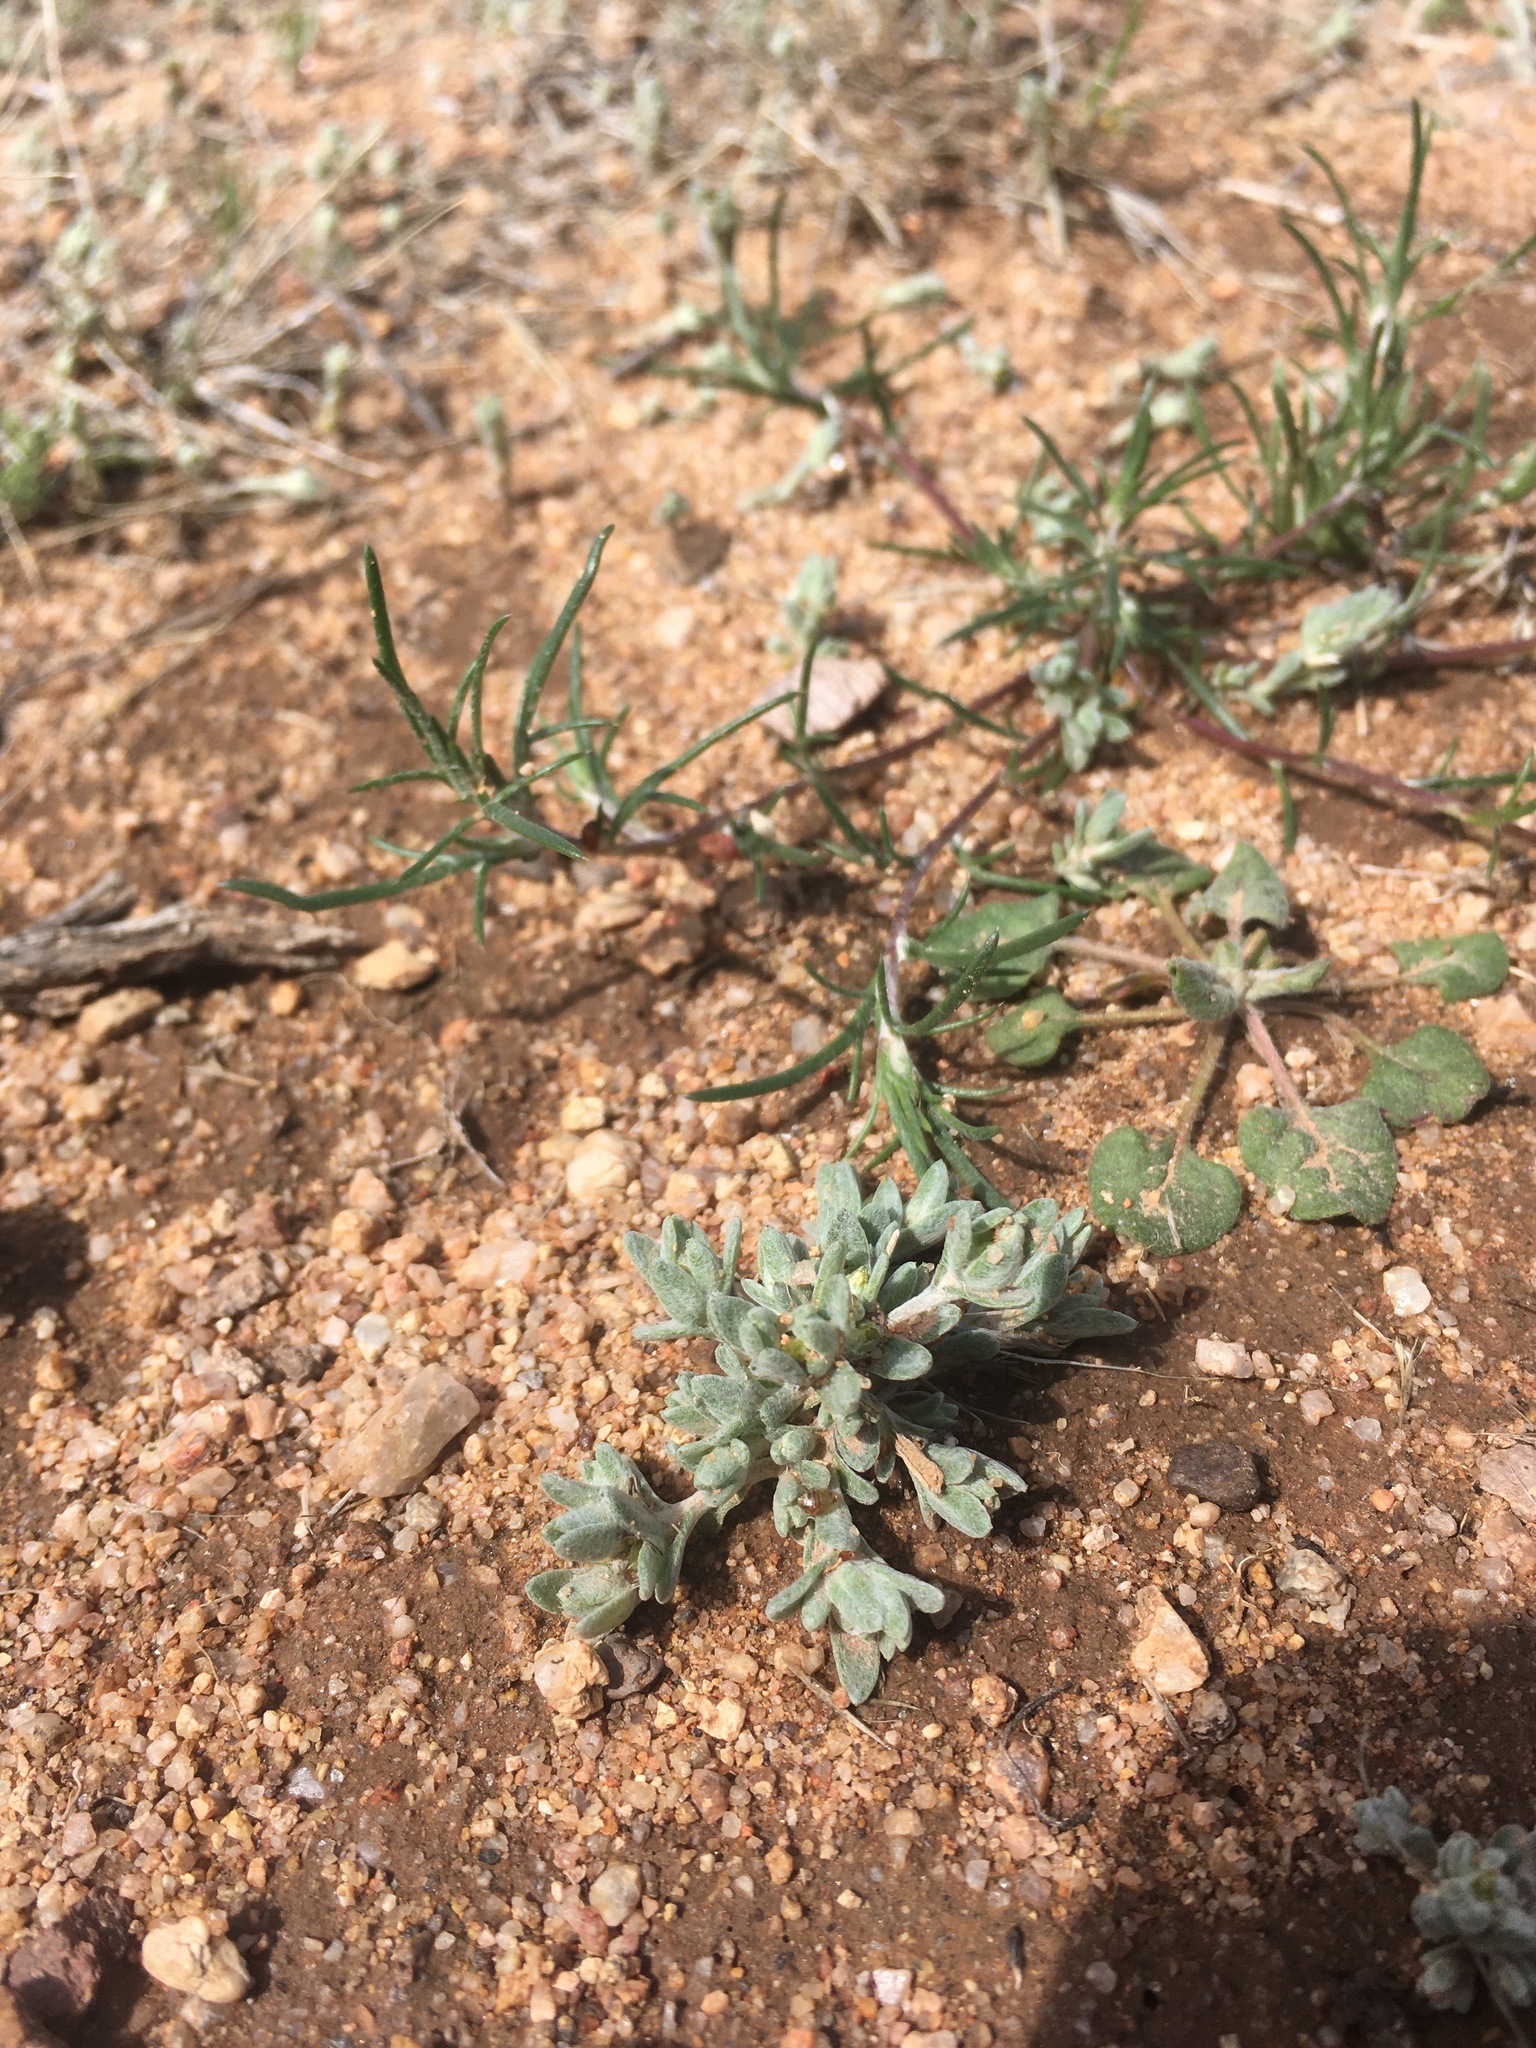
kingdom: Plantae
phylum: Tracheophyta
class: Magnoliopsida
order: Asterales
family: Asteraceae
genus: Logfia
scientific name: Logfia depressa
